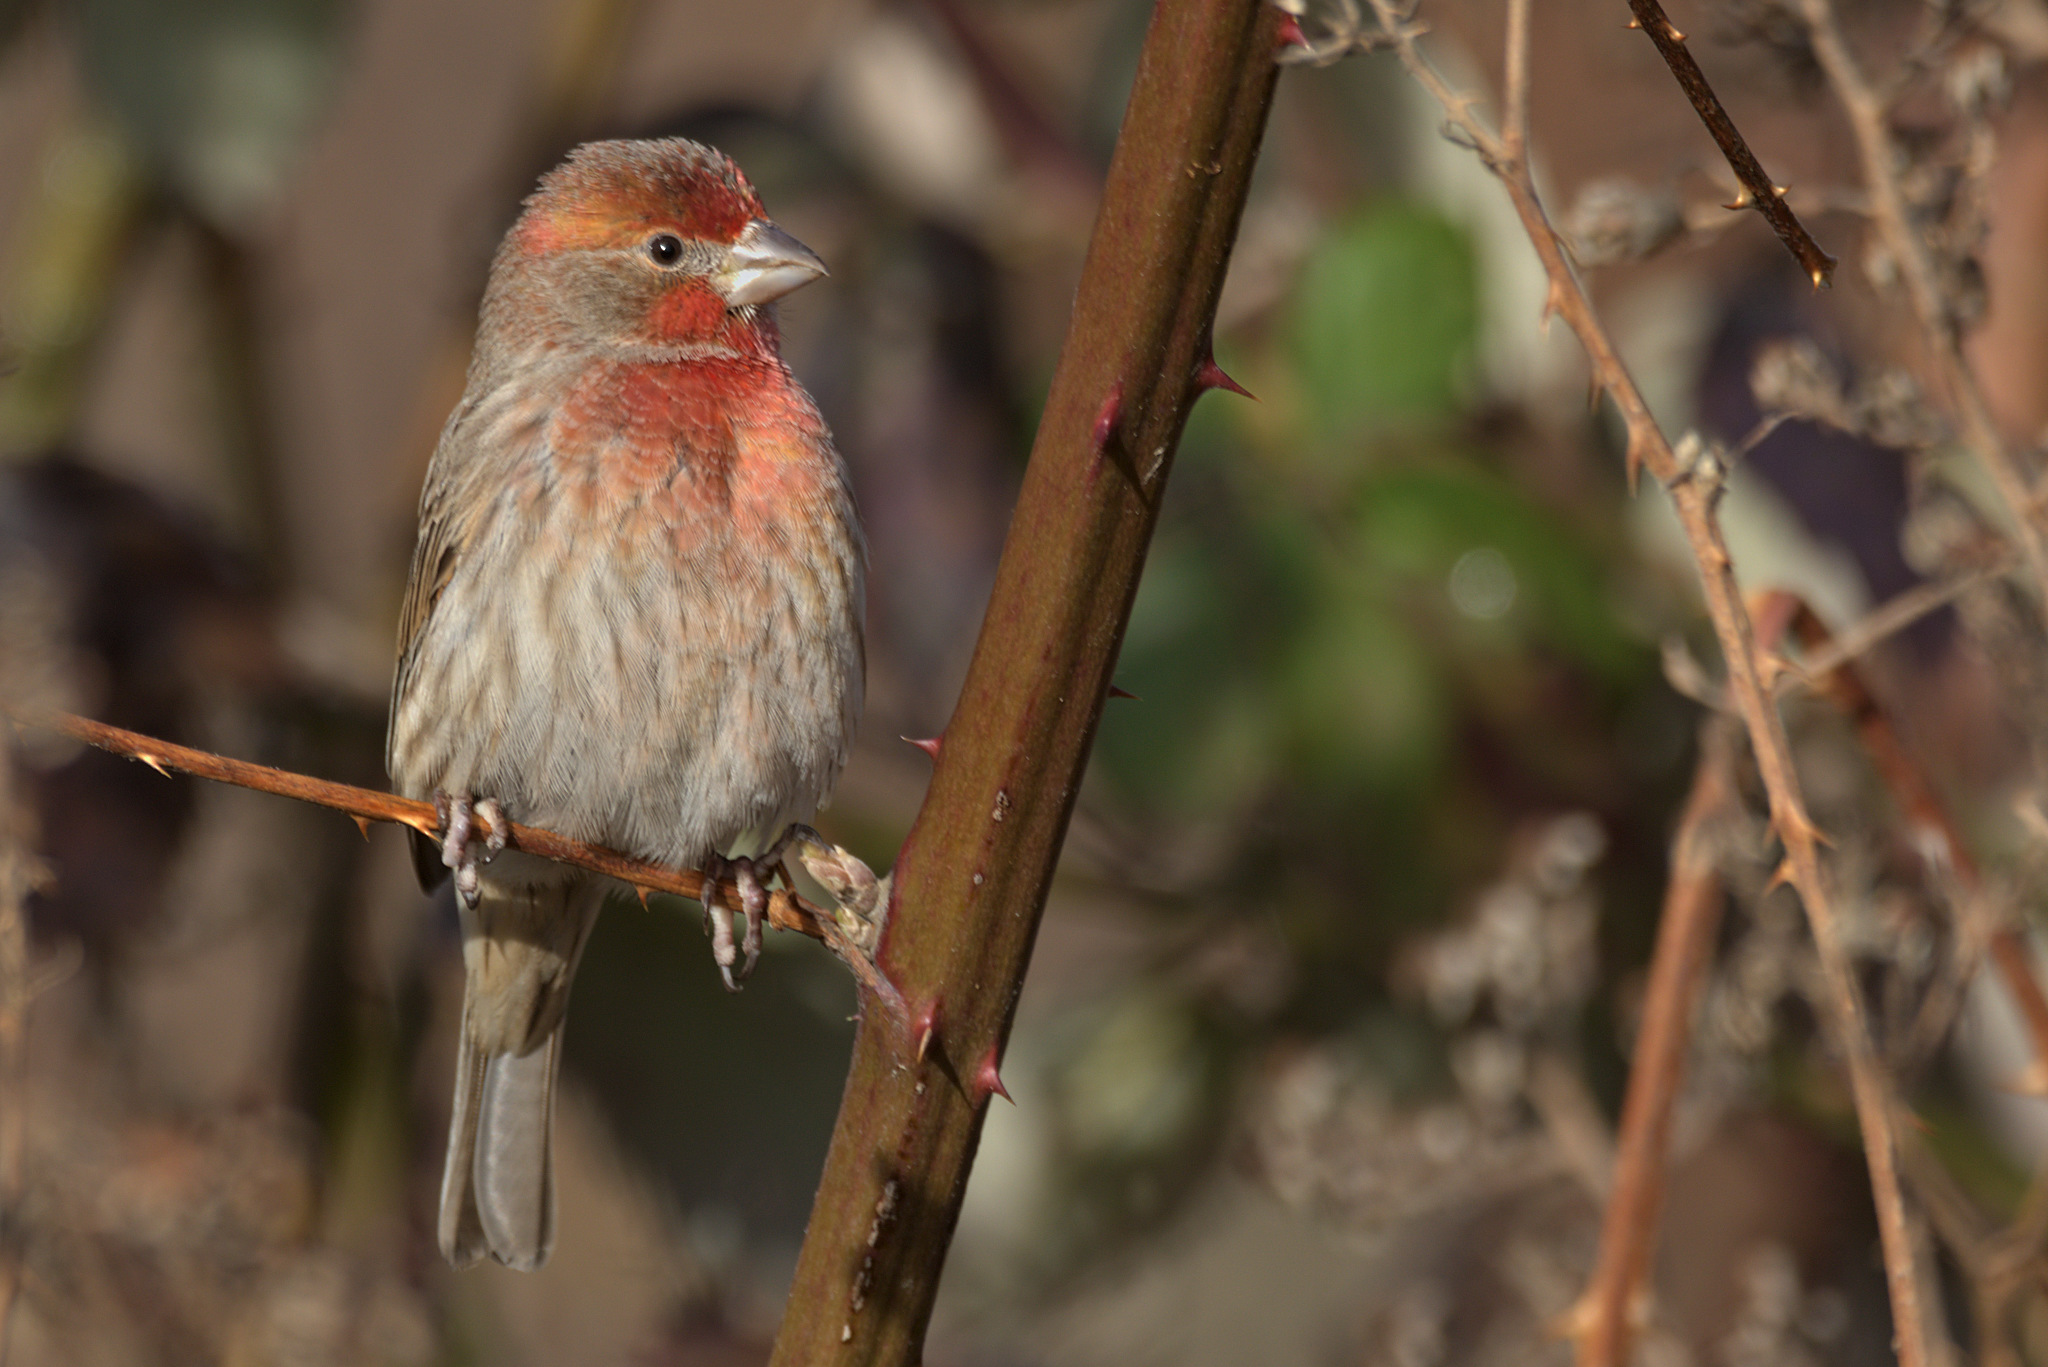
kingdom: Animalia
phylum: Chordata
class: Aves
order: Passeriformes
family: Fringillidae
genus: Haemorhous
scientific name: Haemorhous mexicanus
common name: House finch
